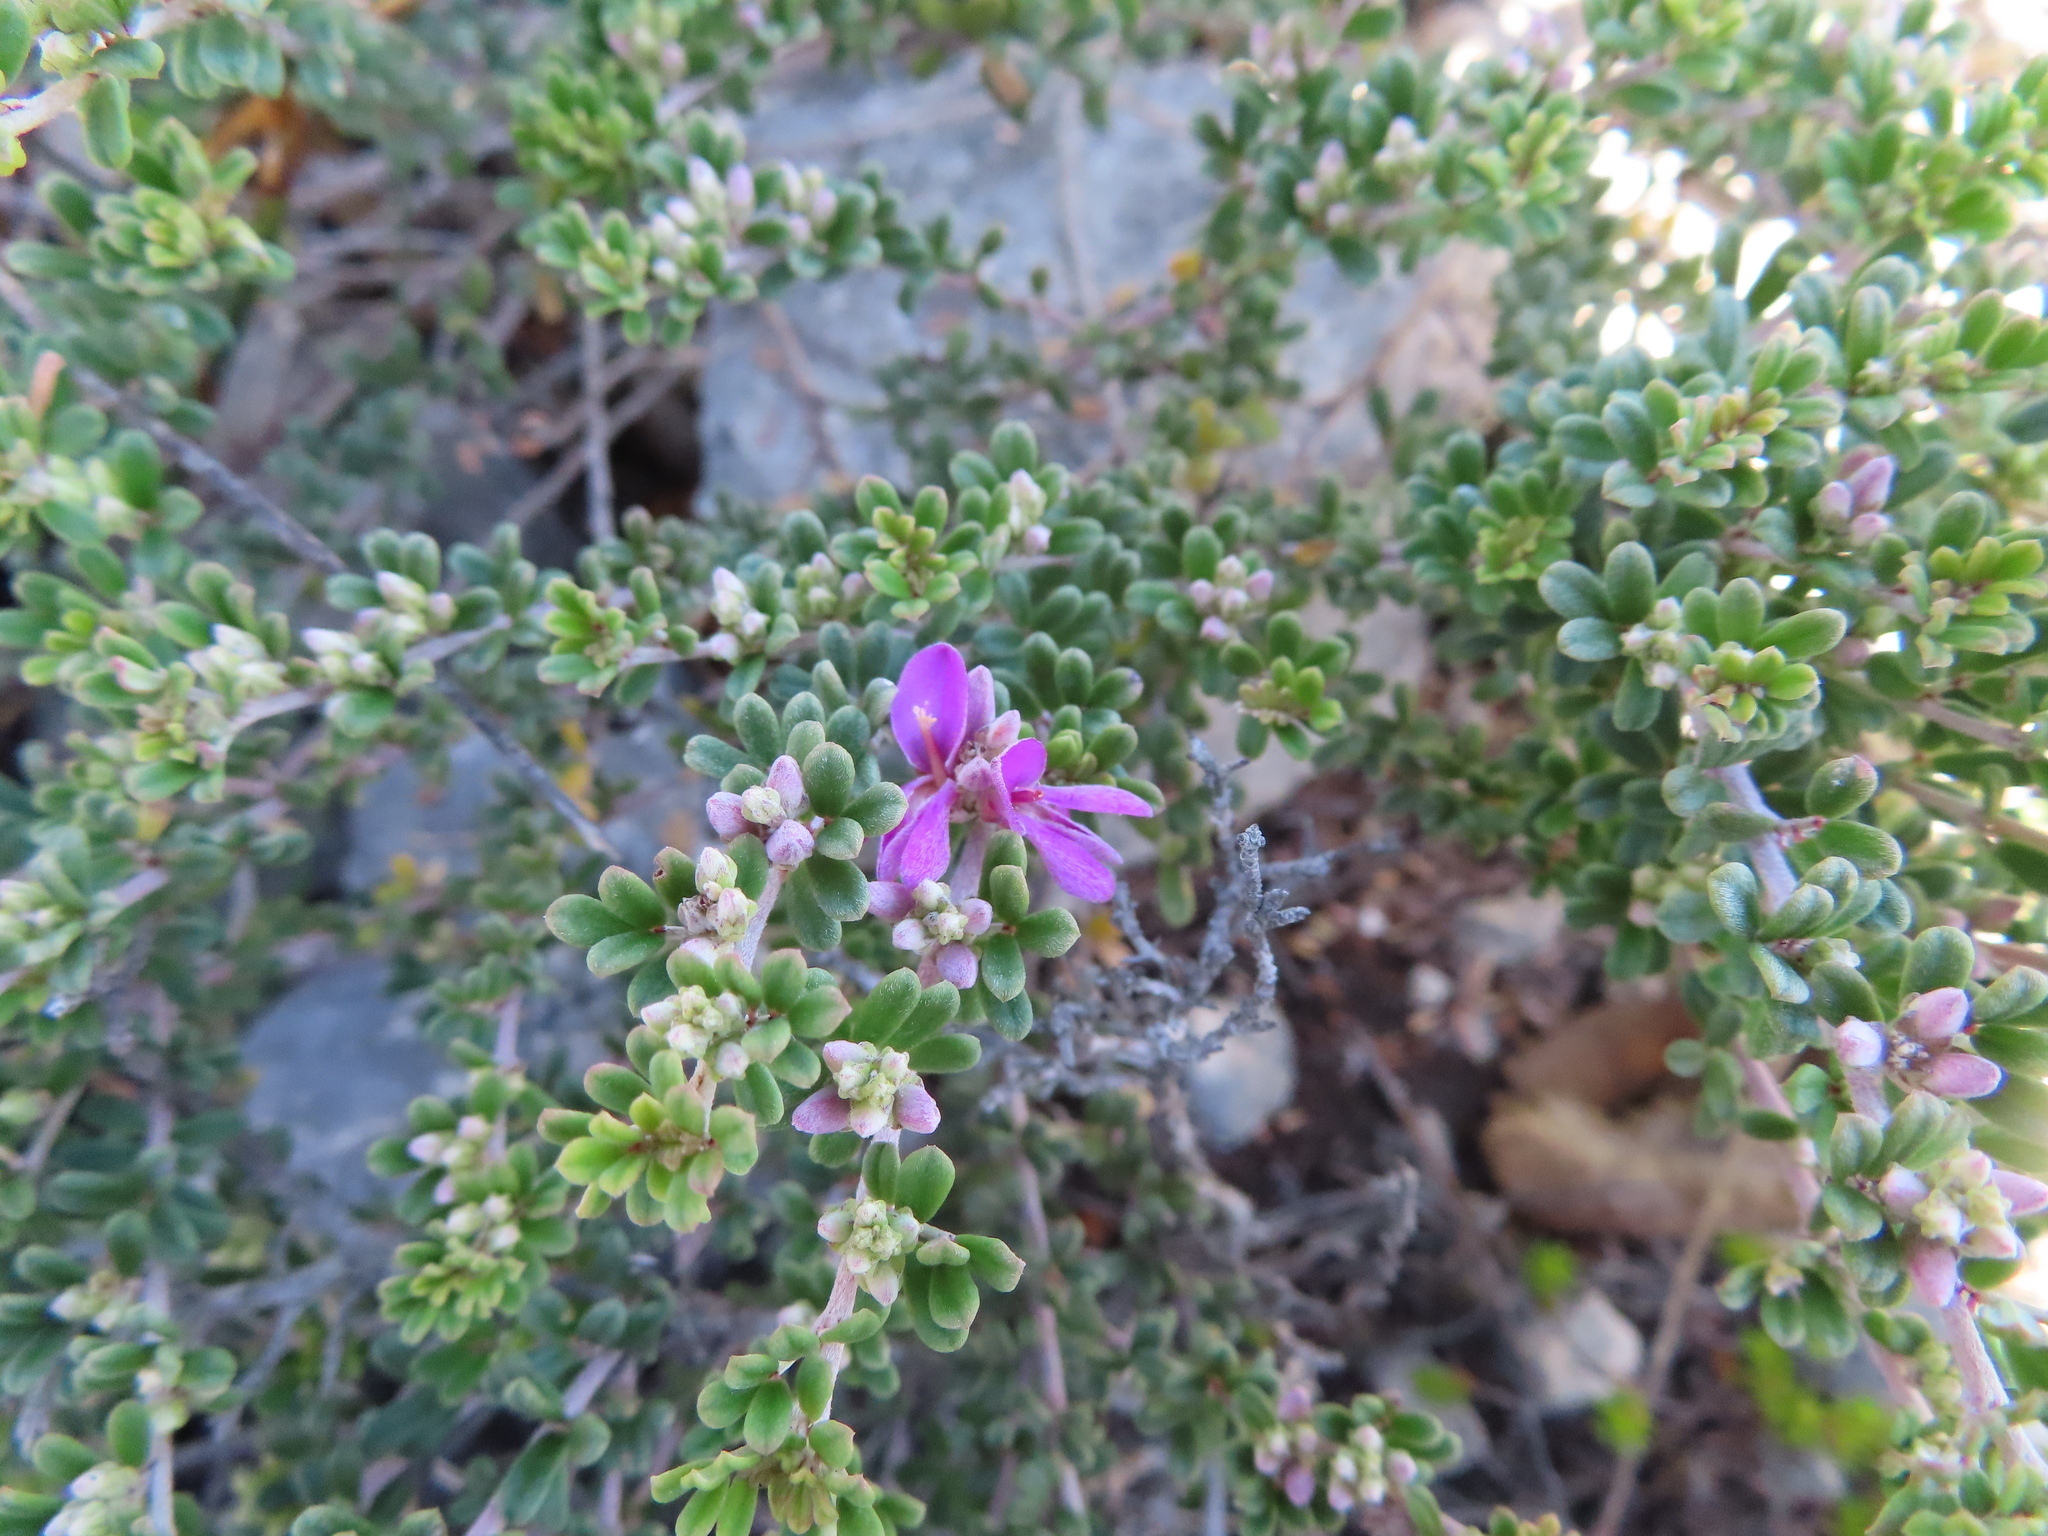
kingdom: Plantae
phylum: Tracheophyta
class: Magnoliopsida
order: Fabales
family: Fabaceae
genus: Indigofera
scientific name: Indigofera
